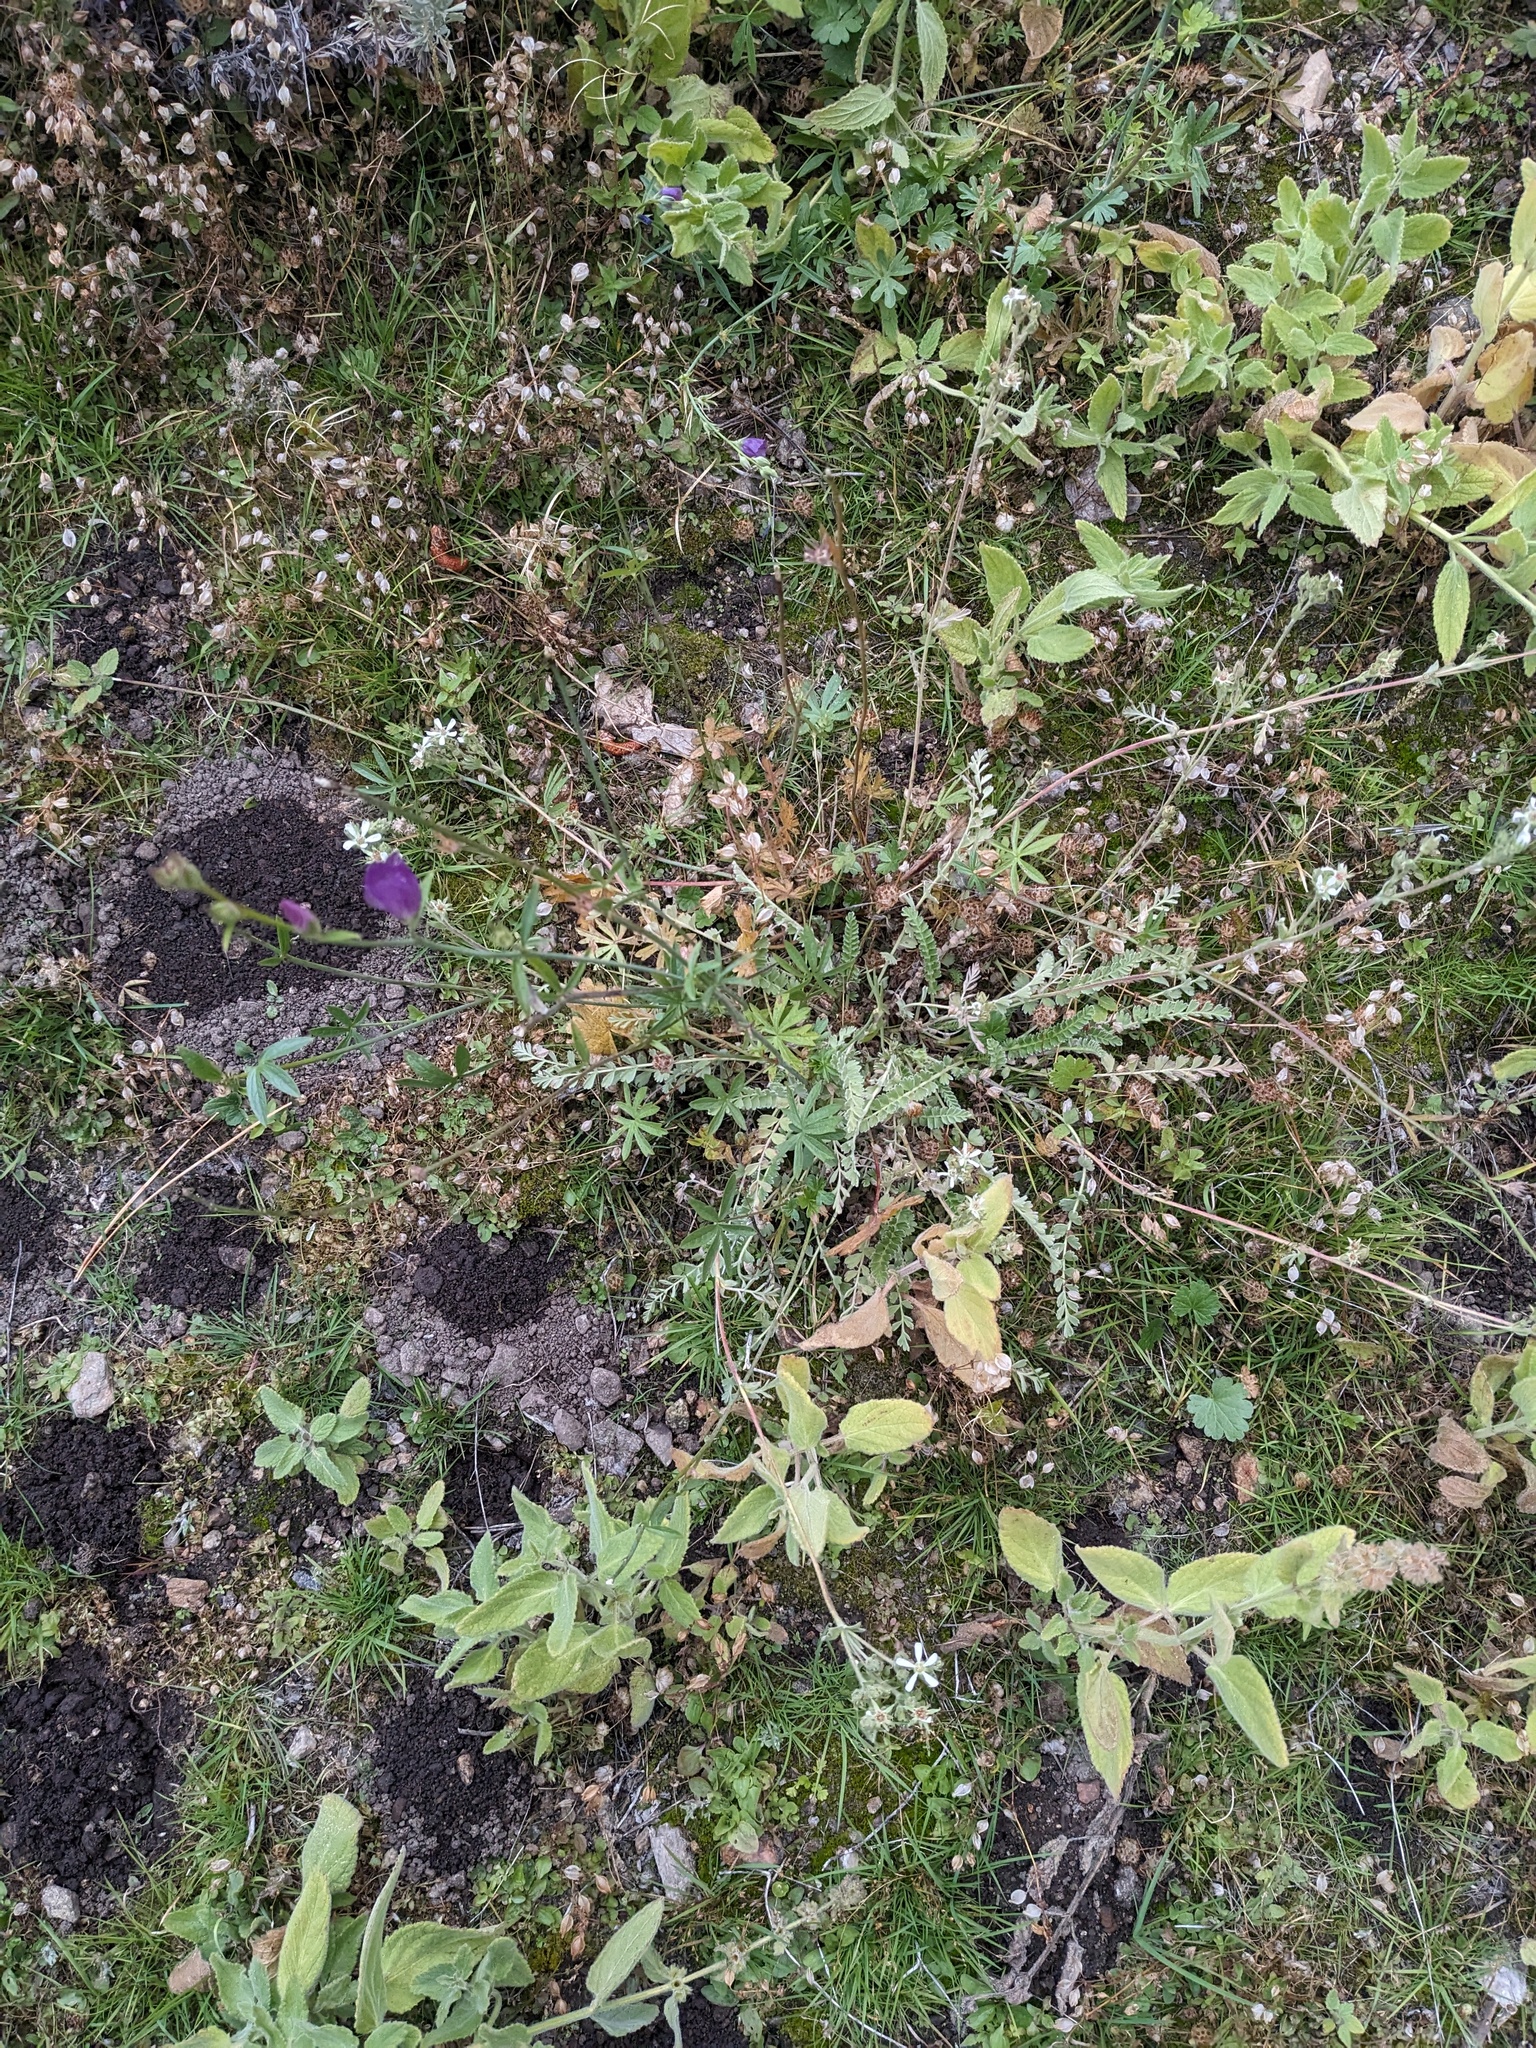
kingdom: Plantae
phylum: Tracheophyta
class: Magnoliopsida
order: Rosales
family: Rosaceae
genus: Potentilla
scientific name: Potentilla rydbergii
